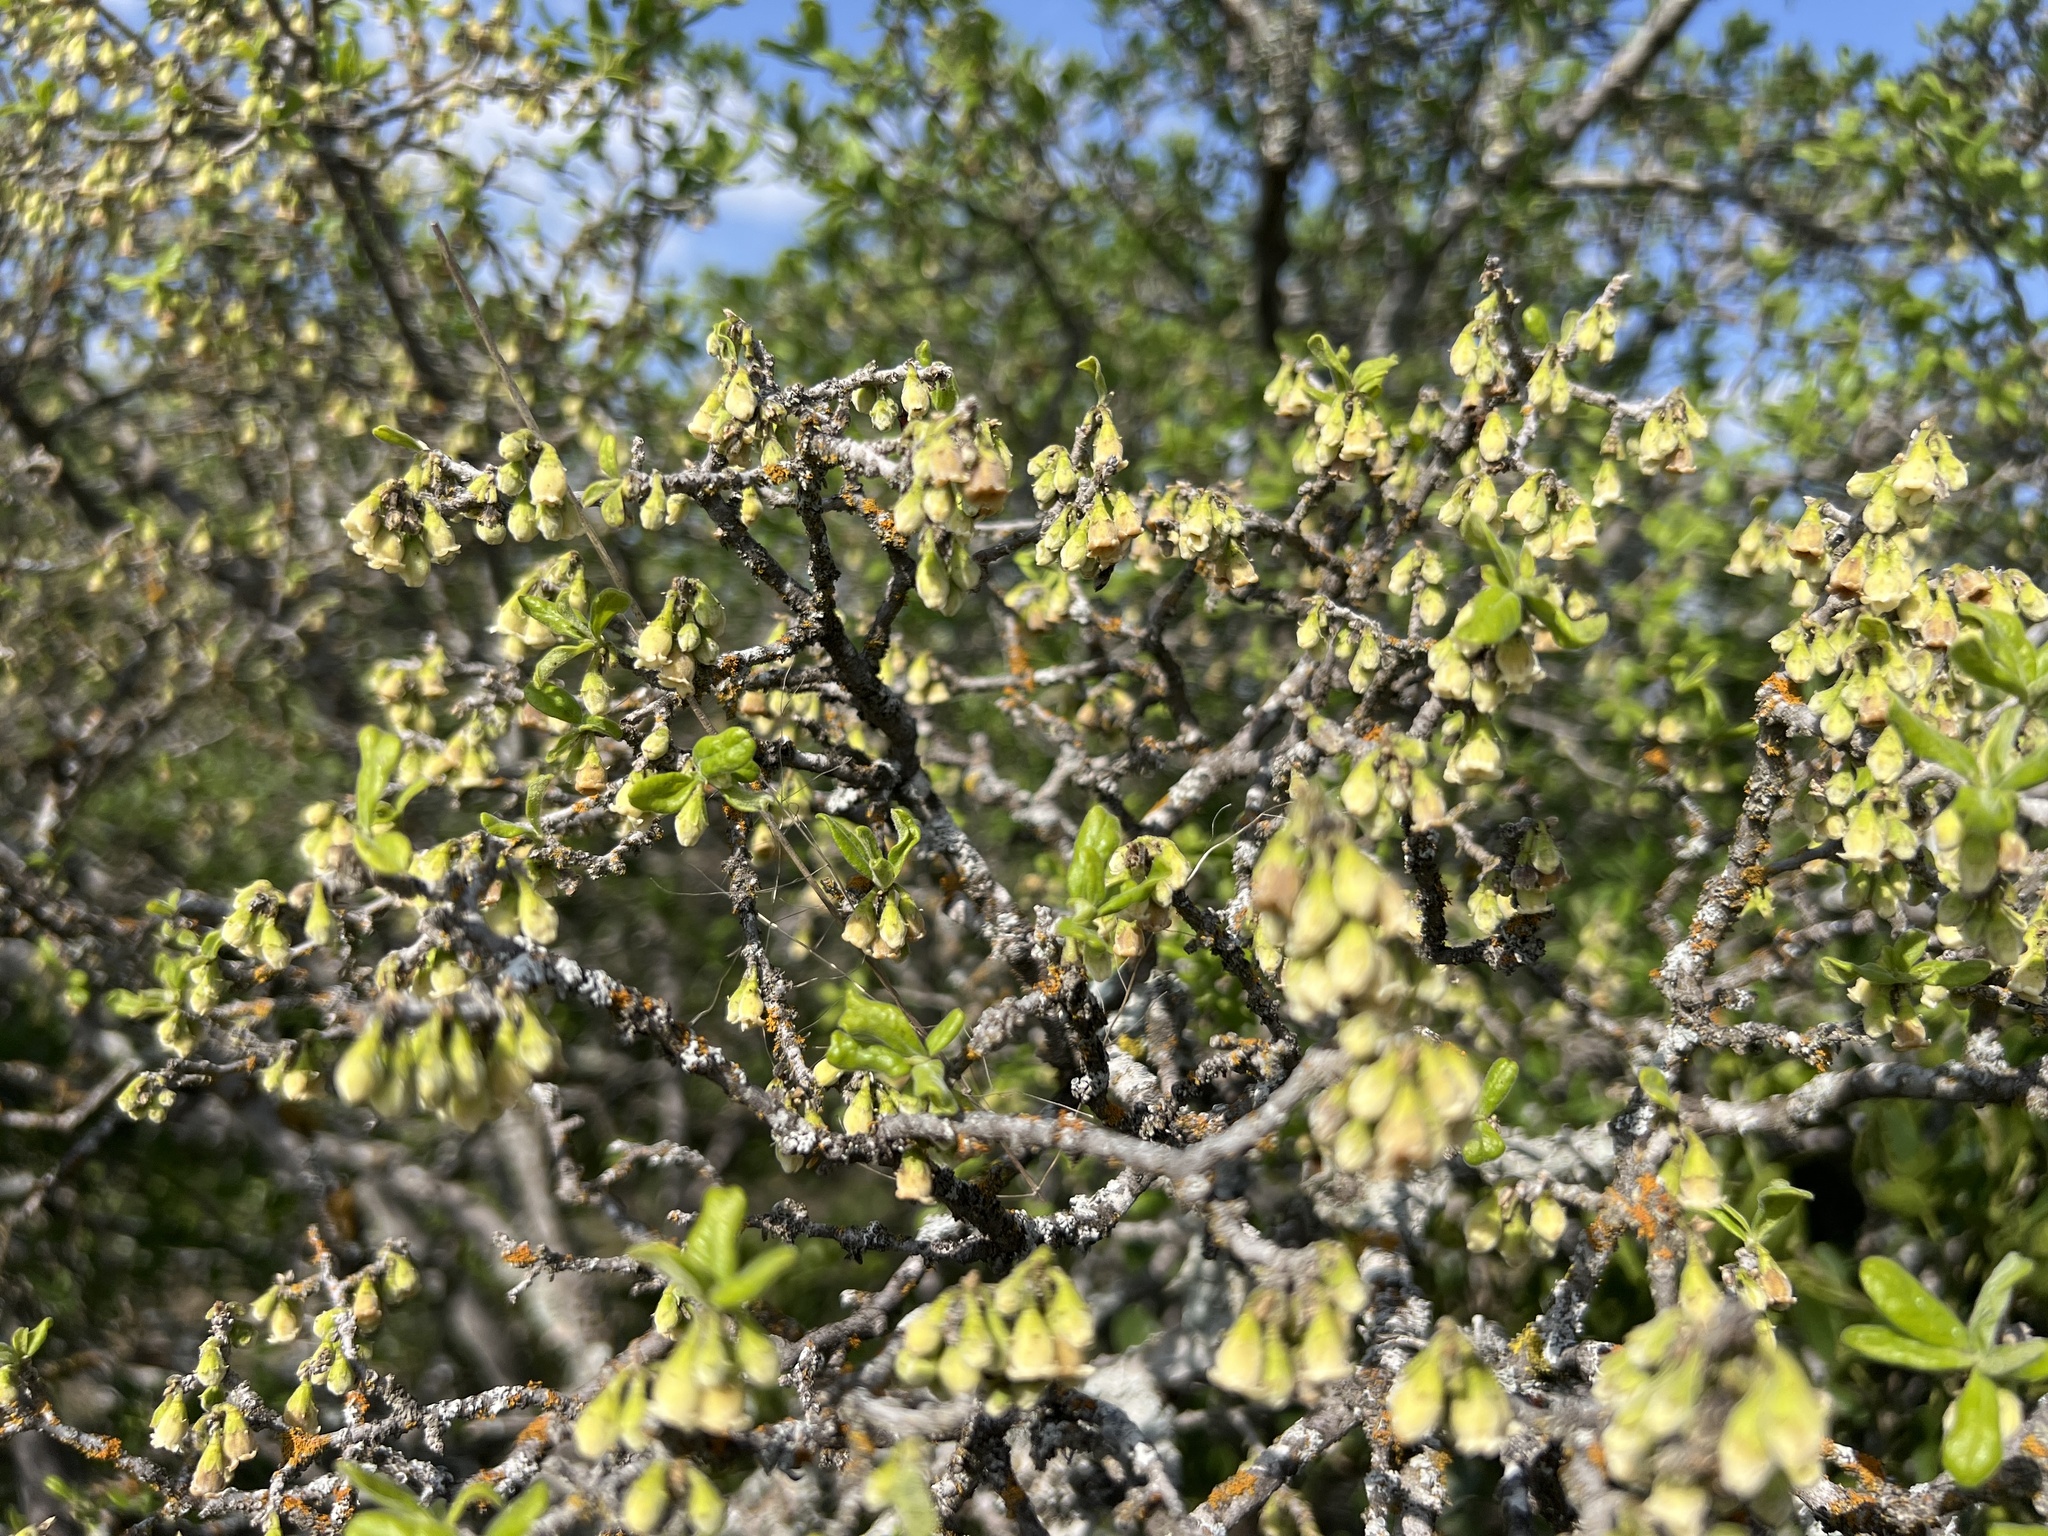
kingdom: Plantae
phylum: Tracheophyta
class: Magnoliopsida
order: Ericales
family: Ebenaceae
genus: Diospyros
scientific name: Diospyros texana
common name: Texas persimmon
